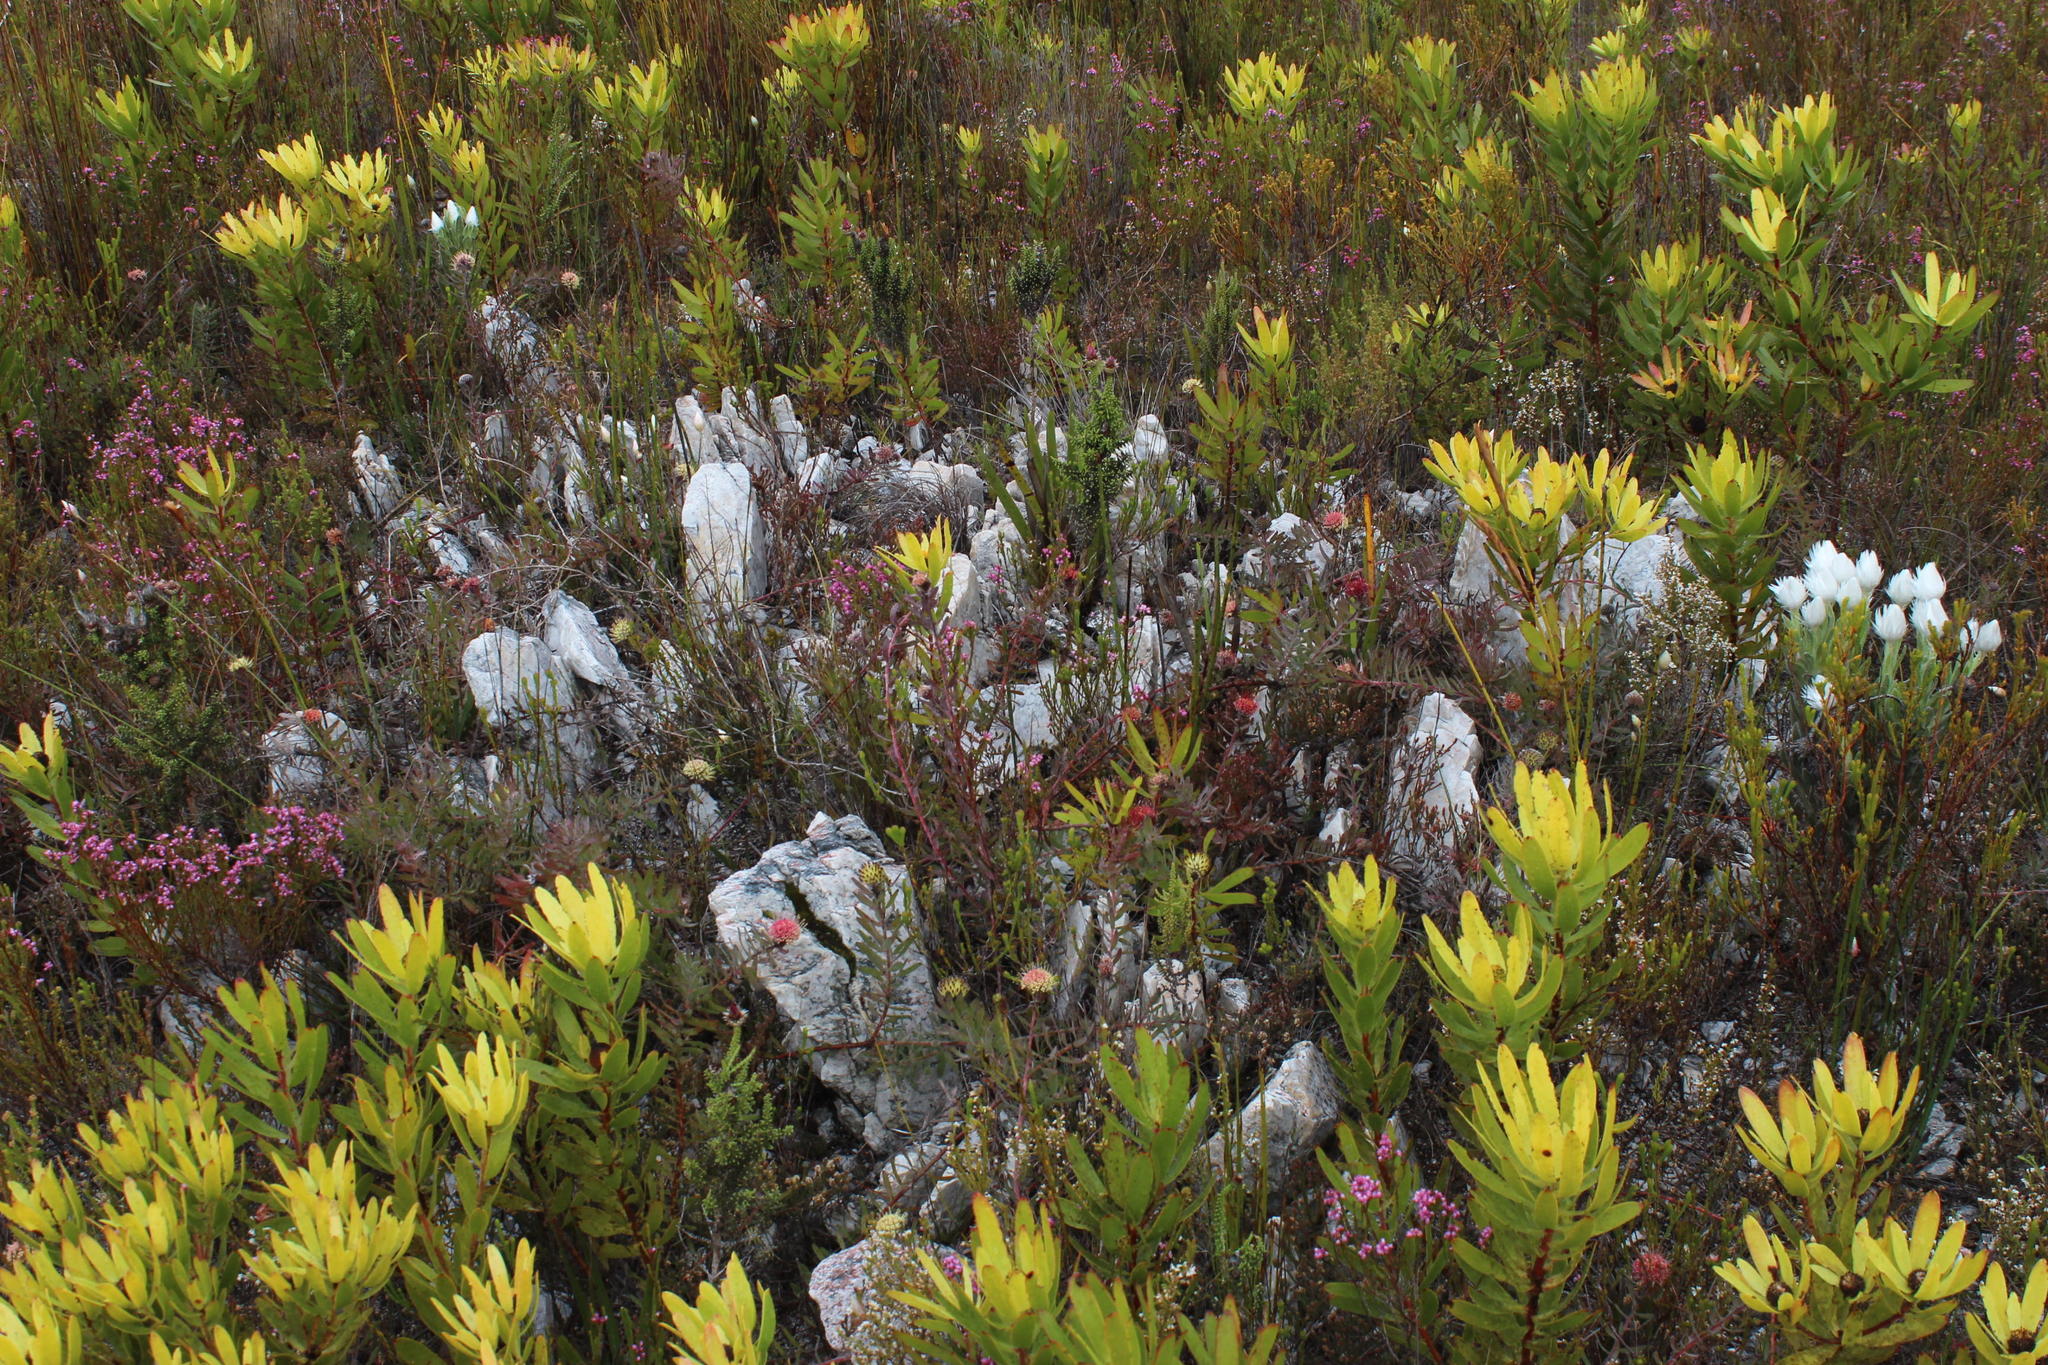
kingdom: Plantae
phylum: Tracheophyta
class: Magnoliopsida
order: Proteales
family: Proteaceae
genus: Leucospermum
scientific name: Leucospermum pedunculatum
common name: White-trailing pincushion
